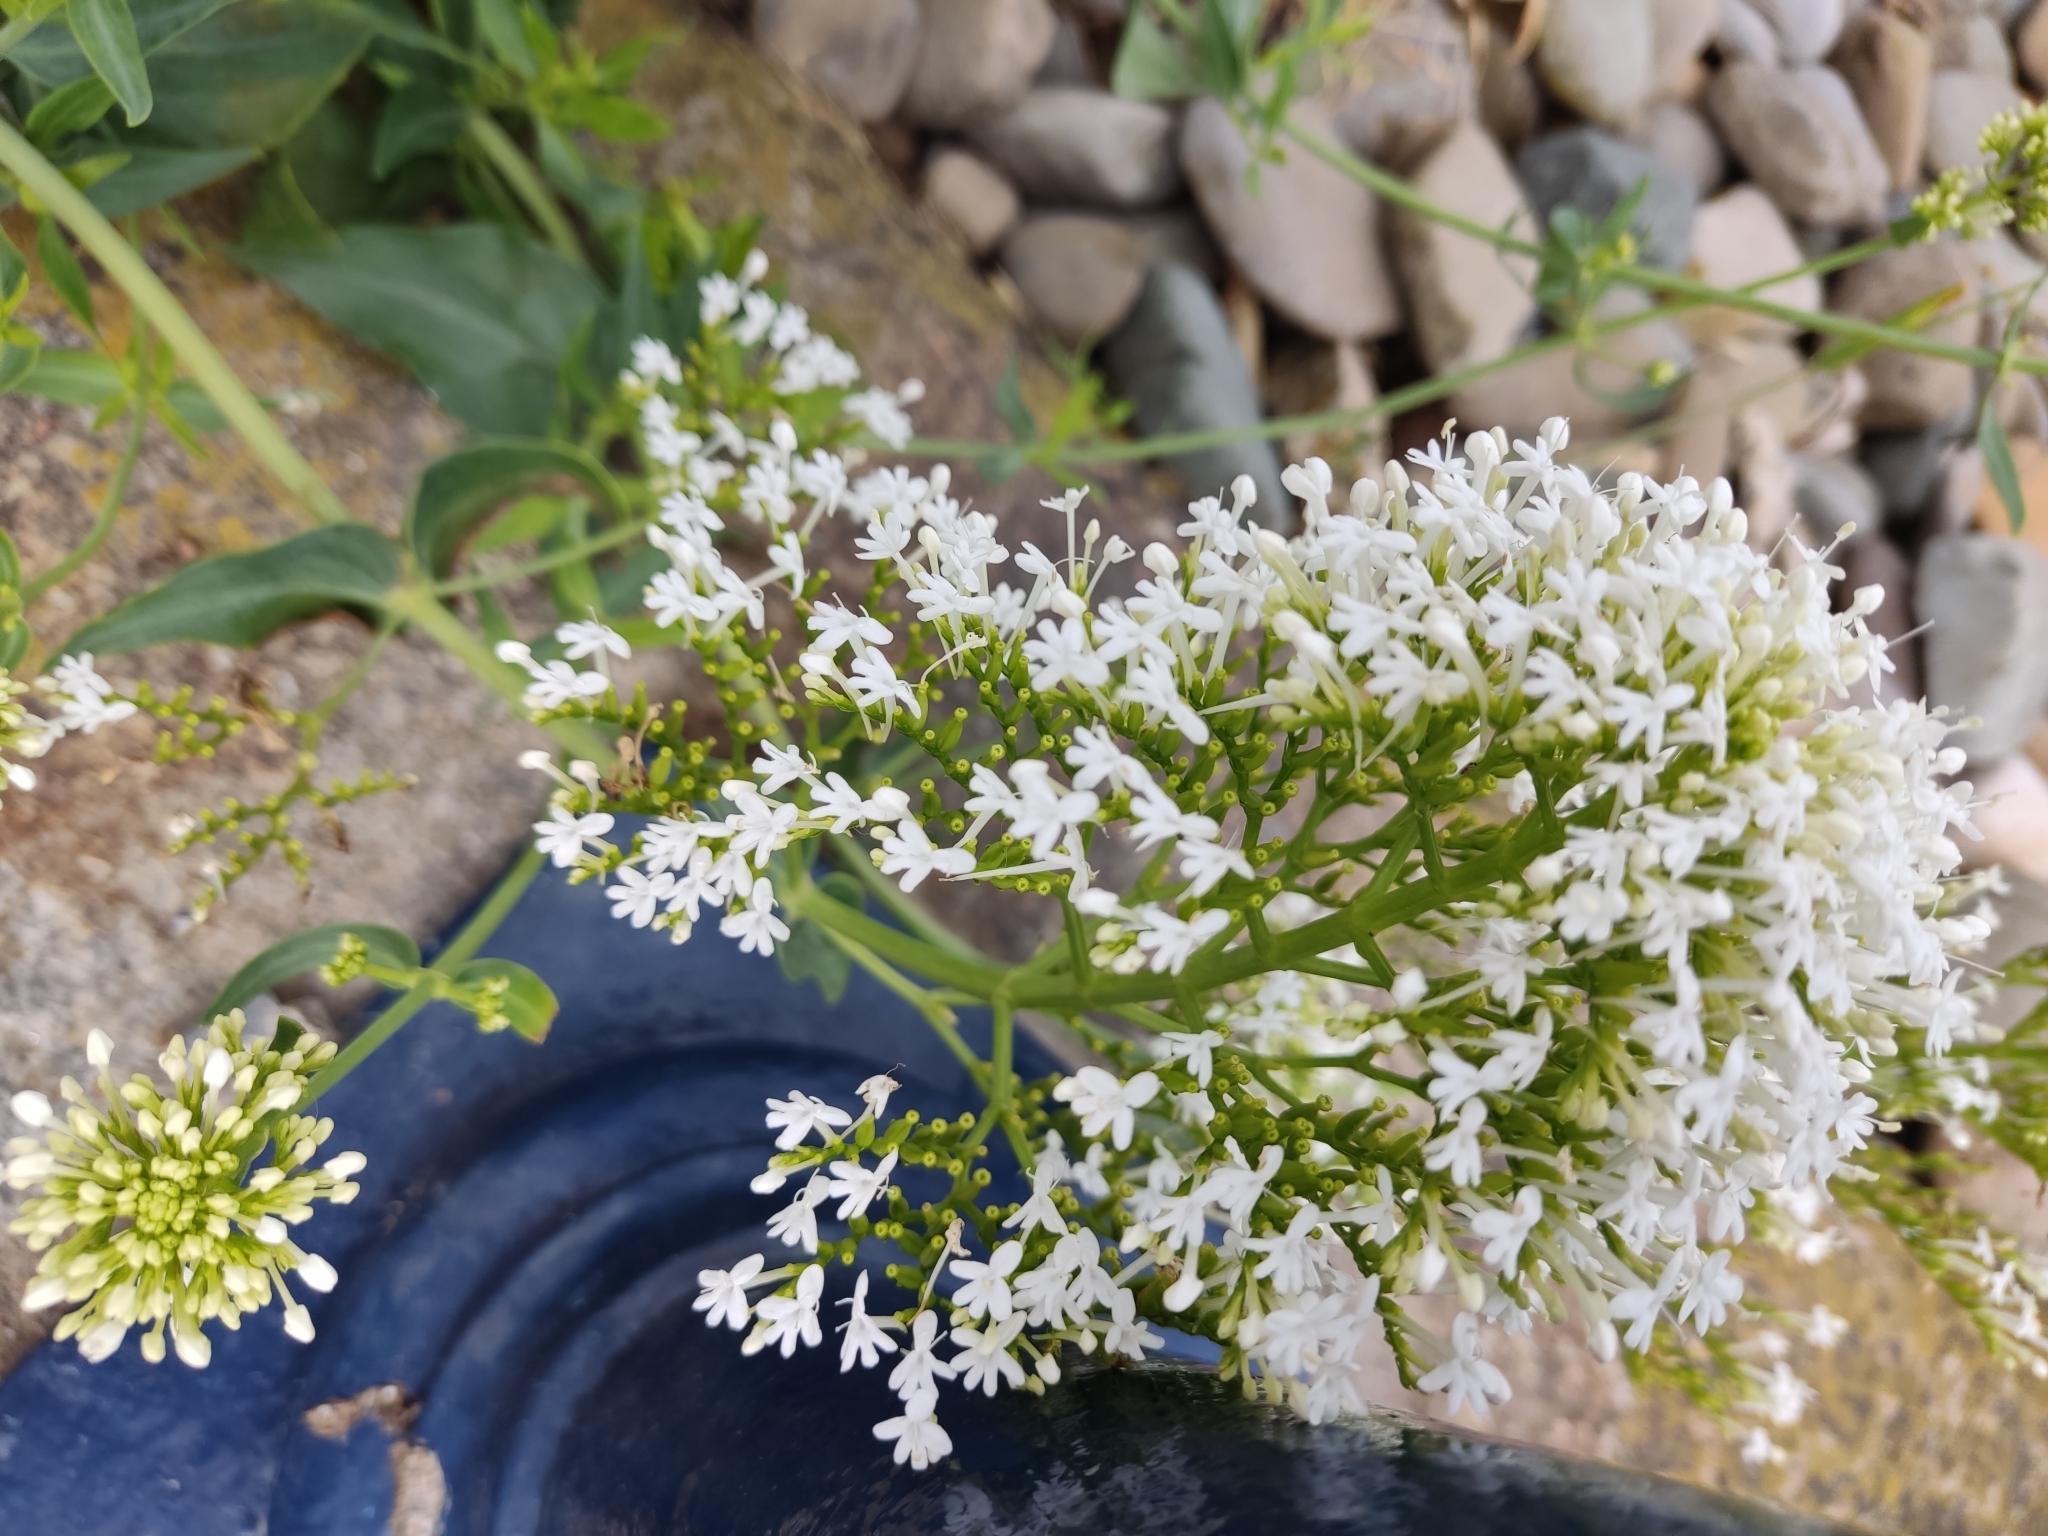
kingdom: Plantae
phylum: Tracheophyta
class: Magnoliopsida
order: Dipsacales
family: Caprifoliaceae
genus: Centranthus
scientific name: Centranthus ruber
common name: Red valerian
